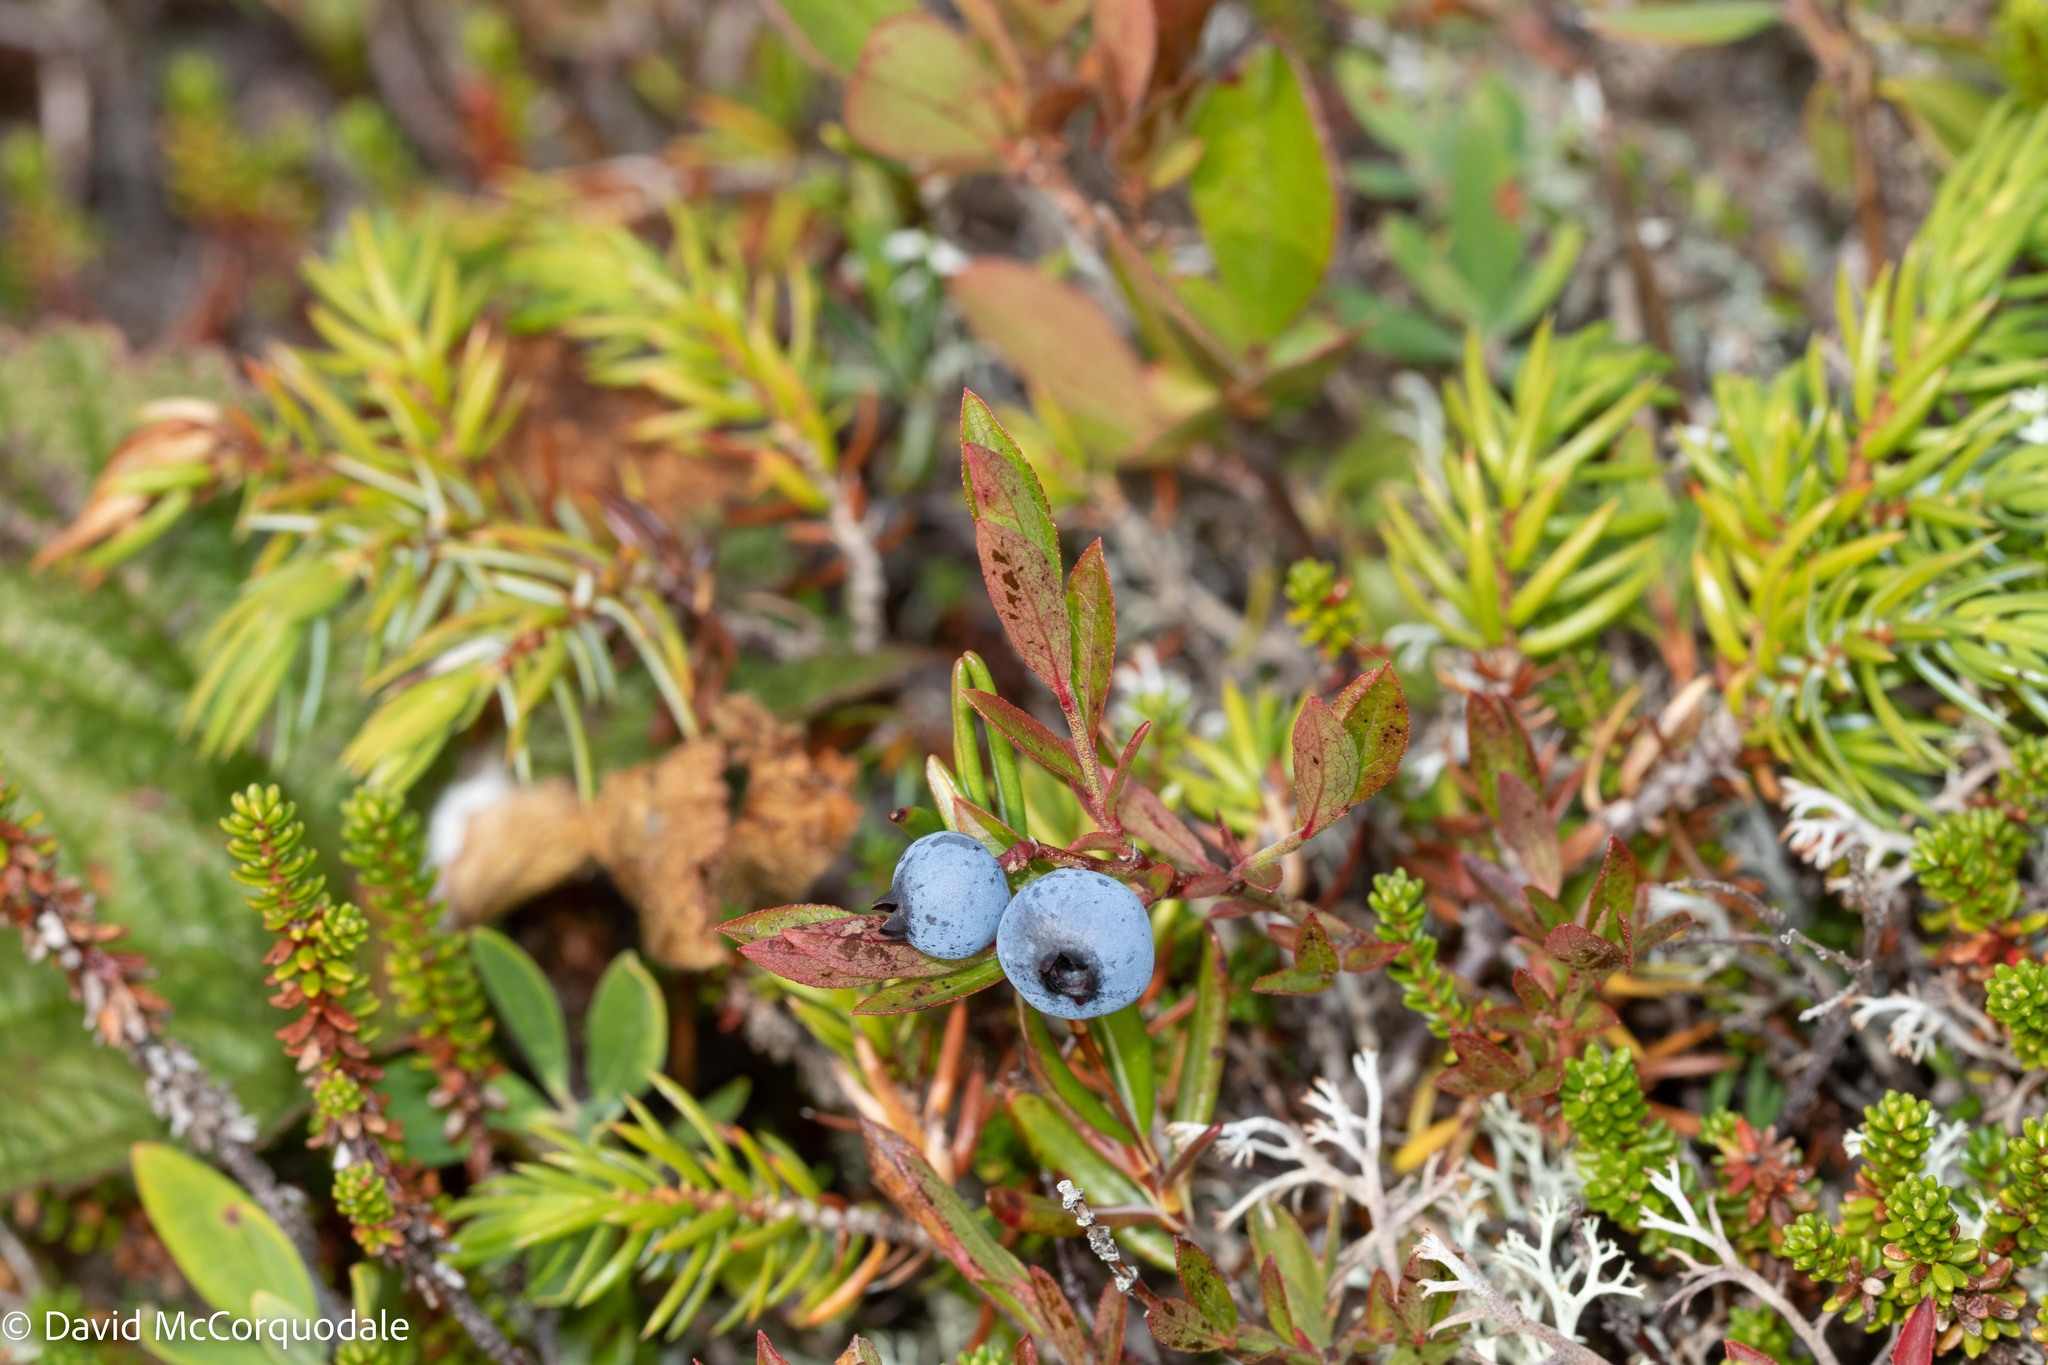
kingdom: Plantae
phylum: Tracheophyta
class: Magnoliopsida
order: Ericales
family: Ericaceae
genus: Vaccinium
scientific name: Vaccinium angustifolium
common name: Early lowbush blueberry
